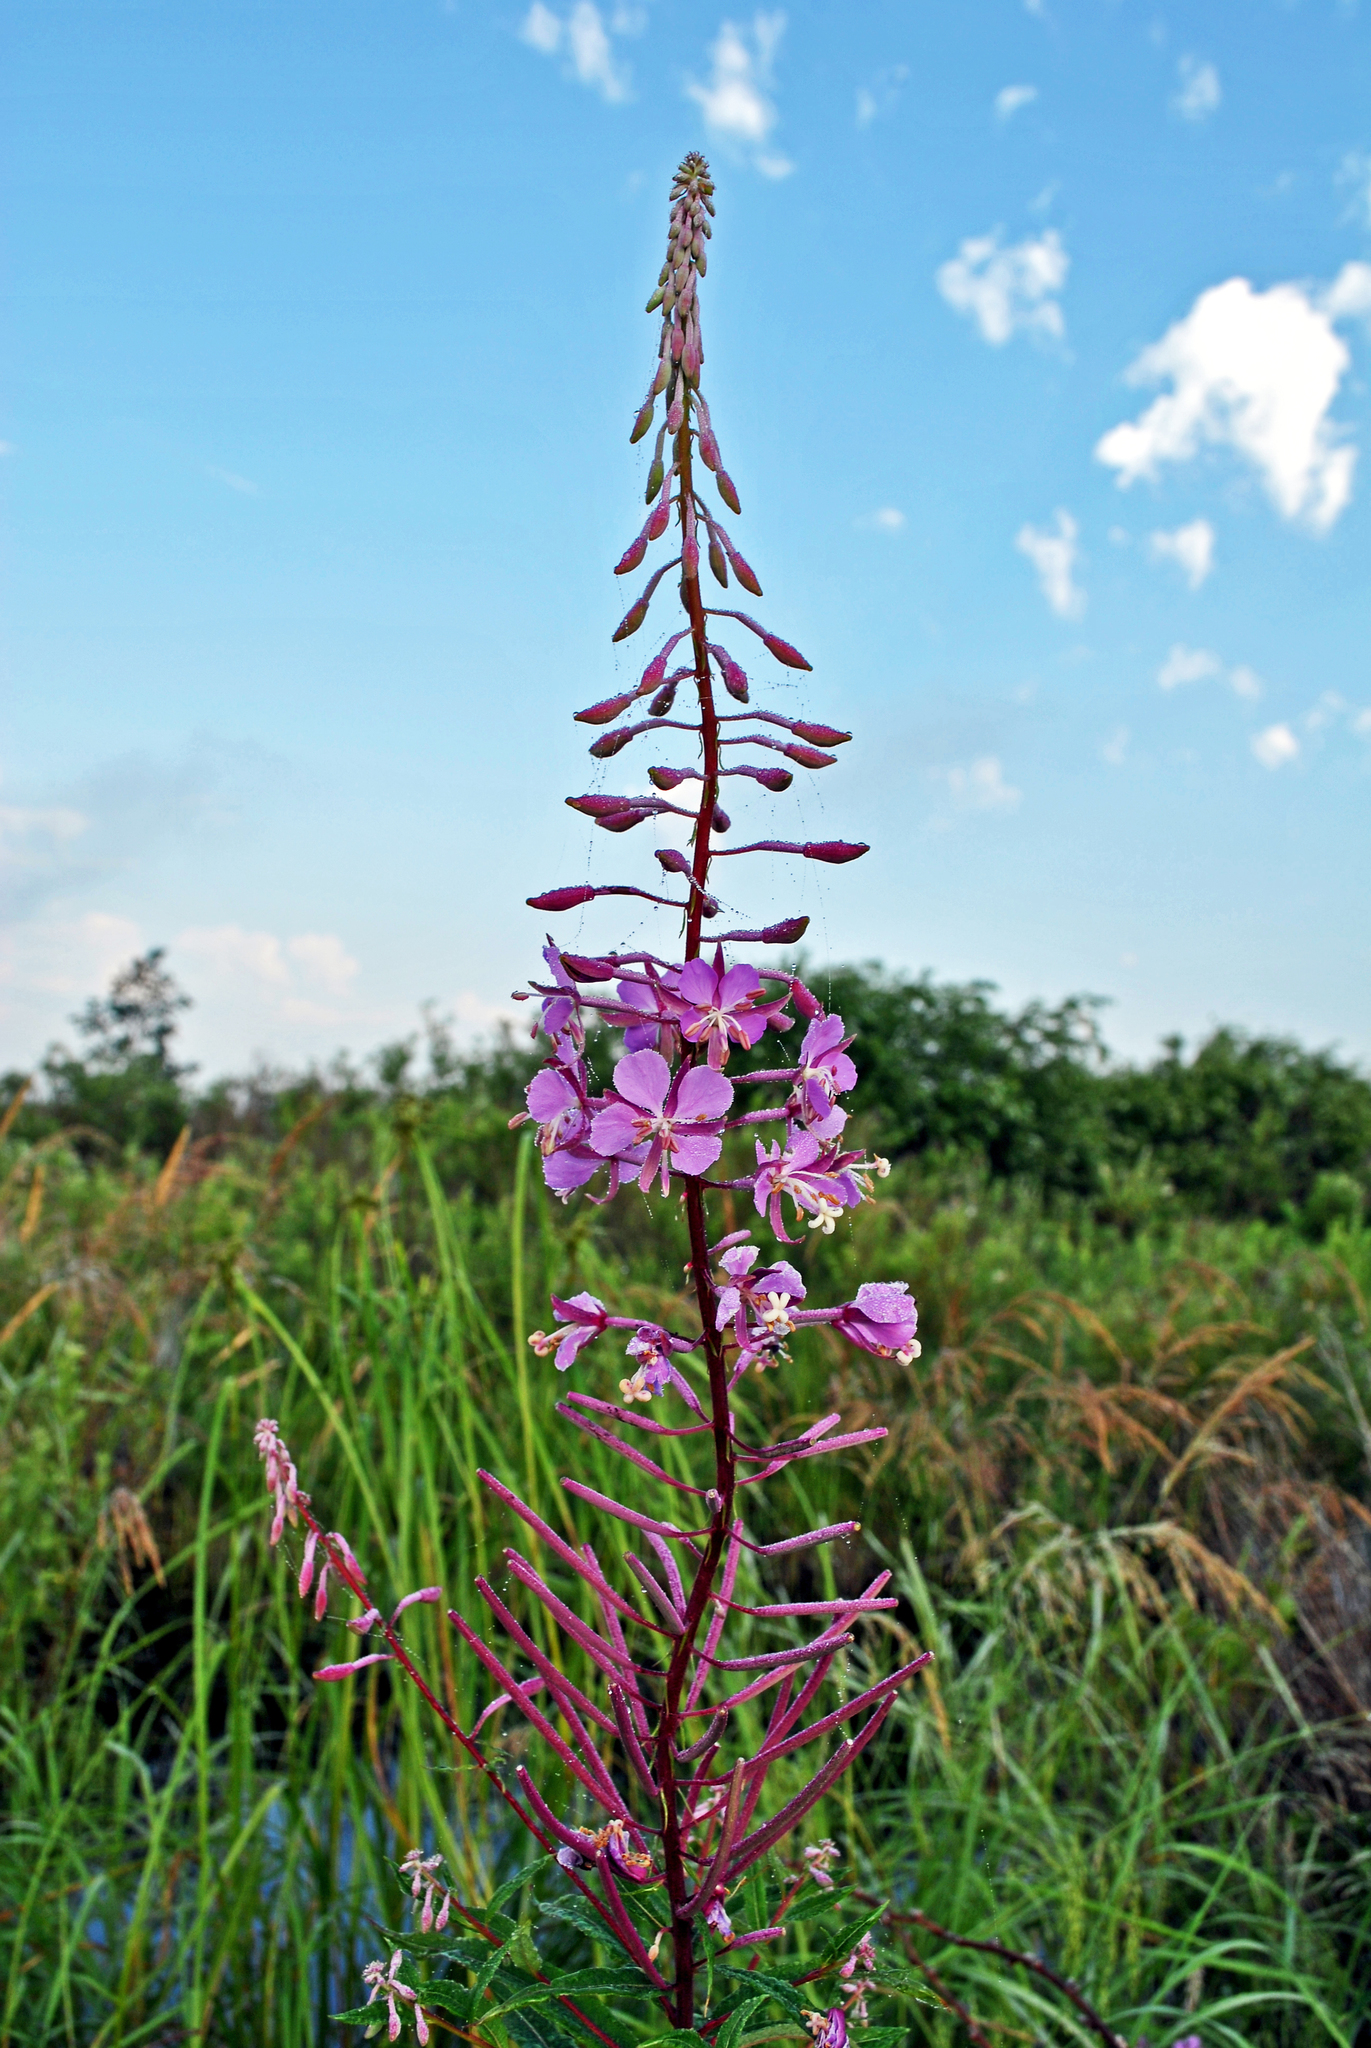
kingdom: Plantae
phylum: Tracheophyta
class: Magnoliopsida
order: Myrtales
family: Onagraceae
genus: Chamaenerion
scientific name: Chamaenerion angustifolium
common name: Fireweed
